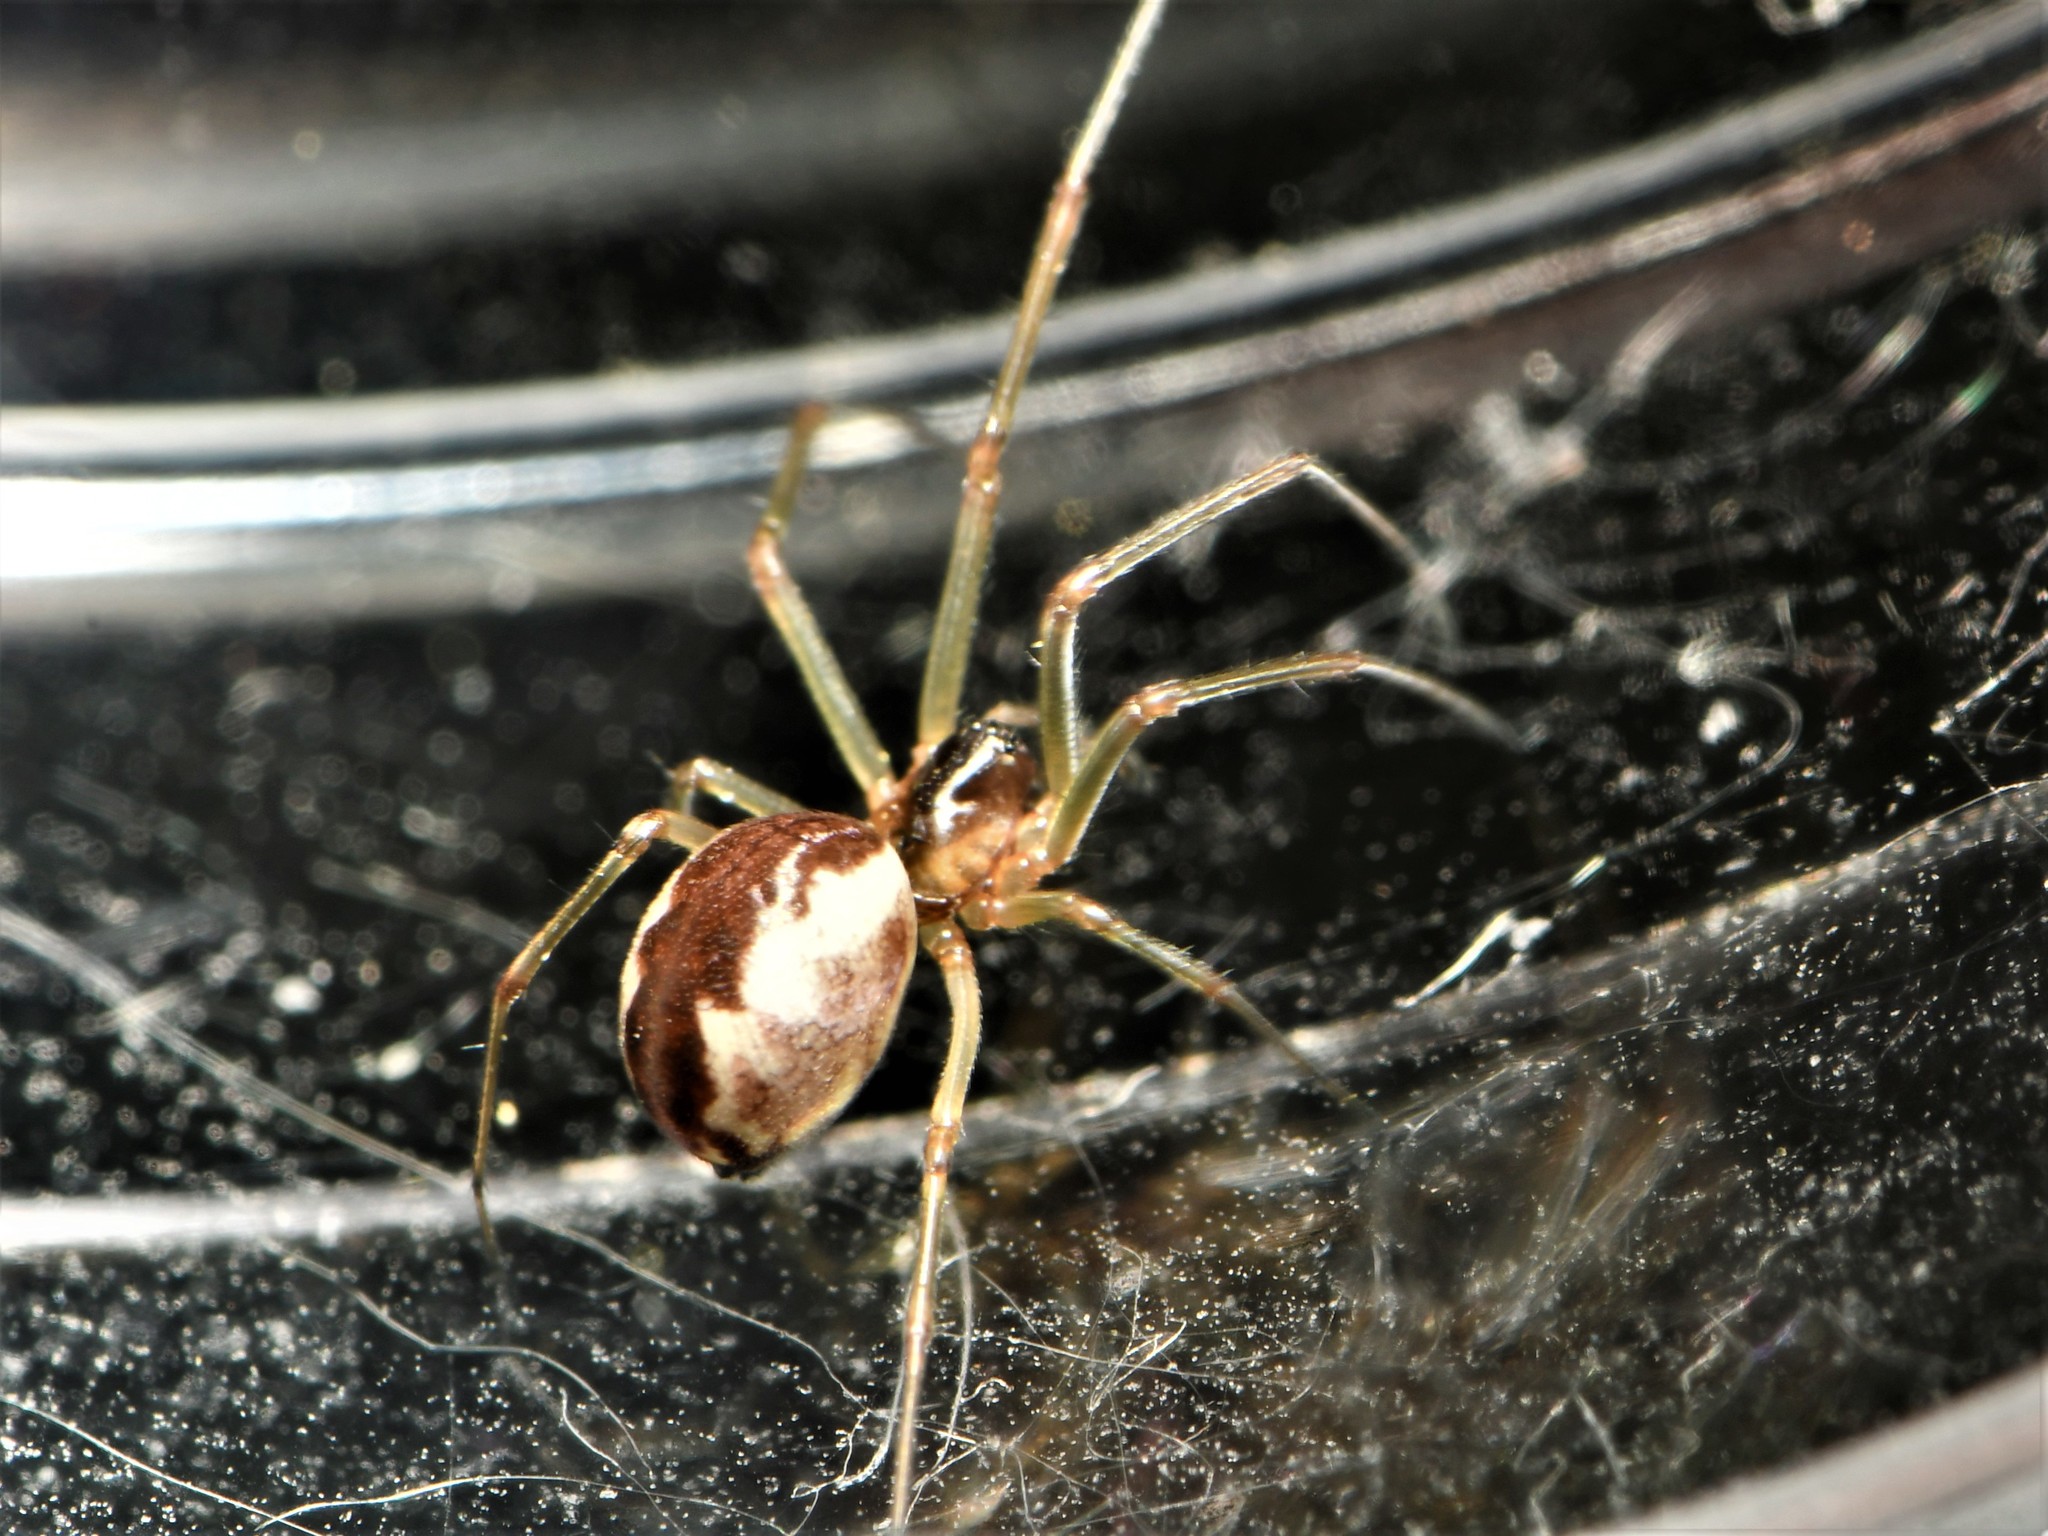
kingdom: Animalia
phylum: Arthropoda
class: Arachnida
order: Araneae
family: Linyphiidae
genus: Neriene
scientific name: Neriene peltata
